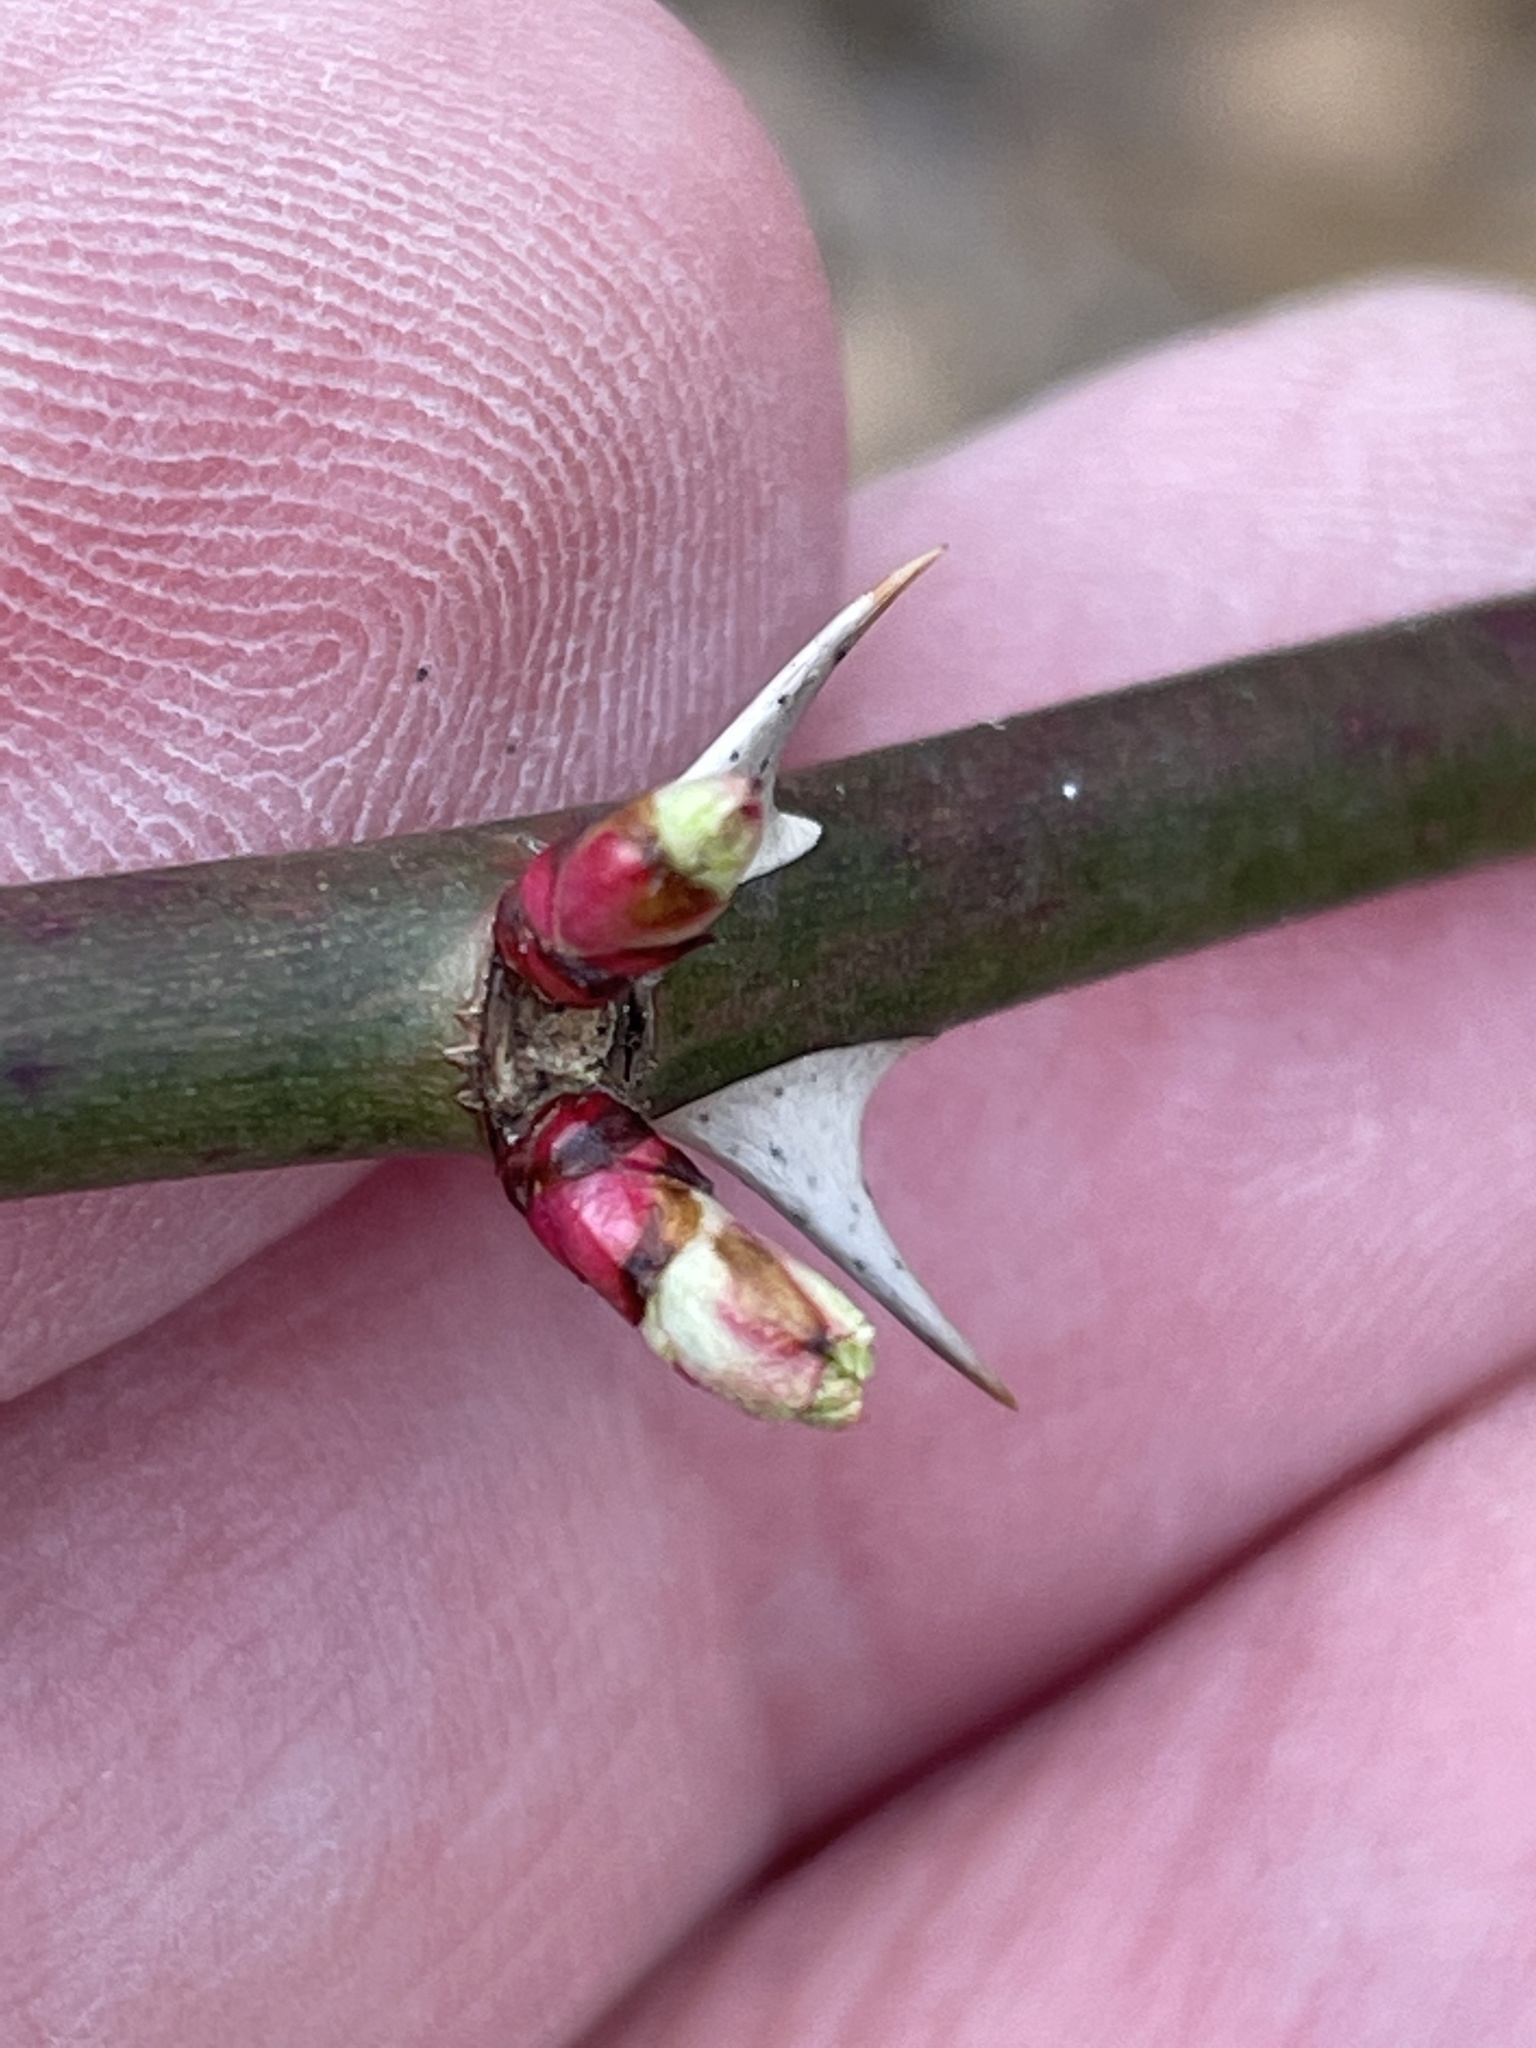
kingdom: Plantae
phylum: Tracheophyta
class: Magnoliopsida
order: Rosales
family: Rosaceae
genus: Rosa
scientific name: Rosa multiflora
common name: Multiflora rose
